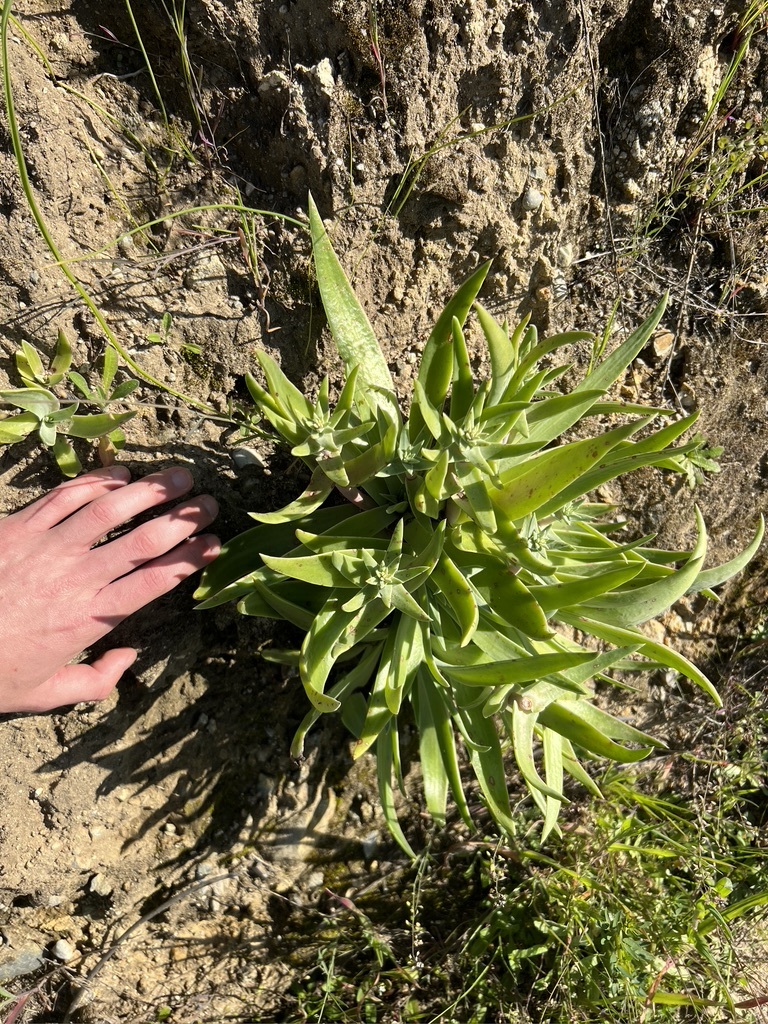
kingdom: Plantae
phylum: Tracheophyta
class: Magnoliopsida
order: Saxifragales
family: Crassulaceae
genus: Dudleya
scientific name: Dudleya lanceolata
